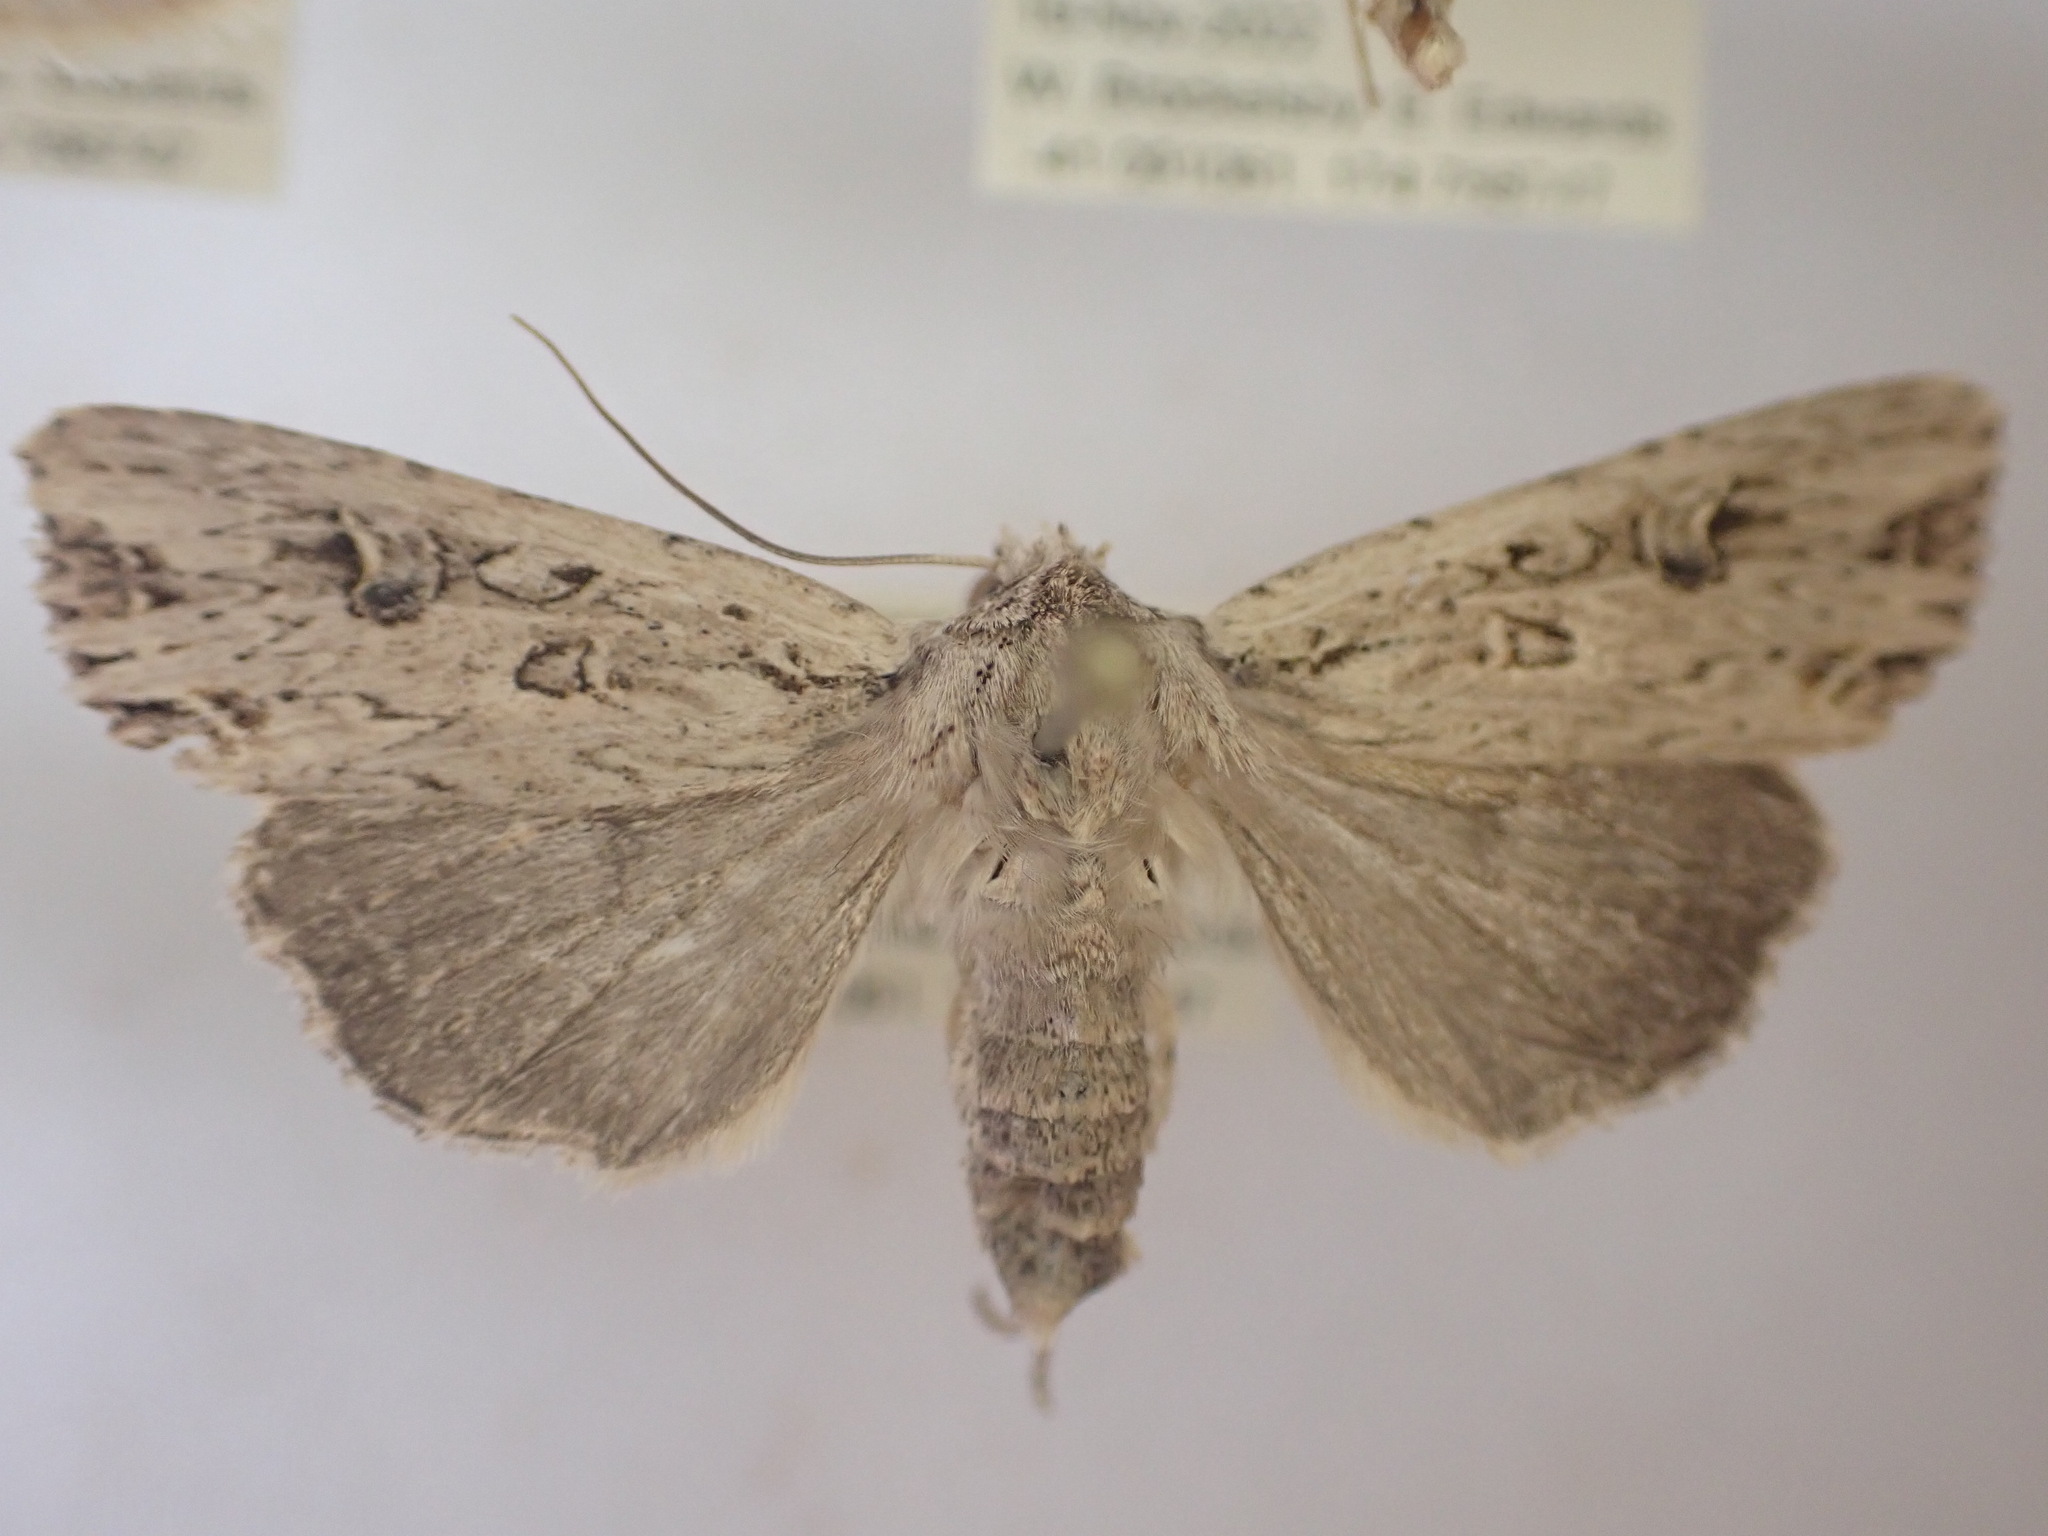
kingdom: Animalia
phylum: Arthropoda
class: Insecta
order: Lepidoptera
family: Noctuidae
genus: Ichneutica
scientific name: Ichneutica lignana
